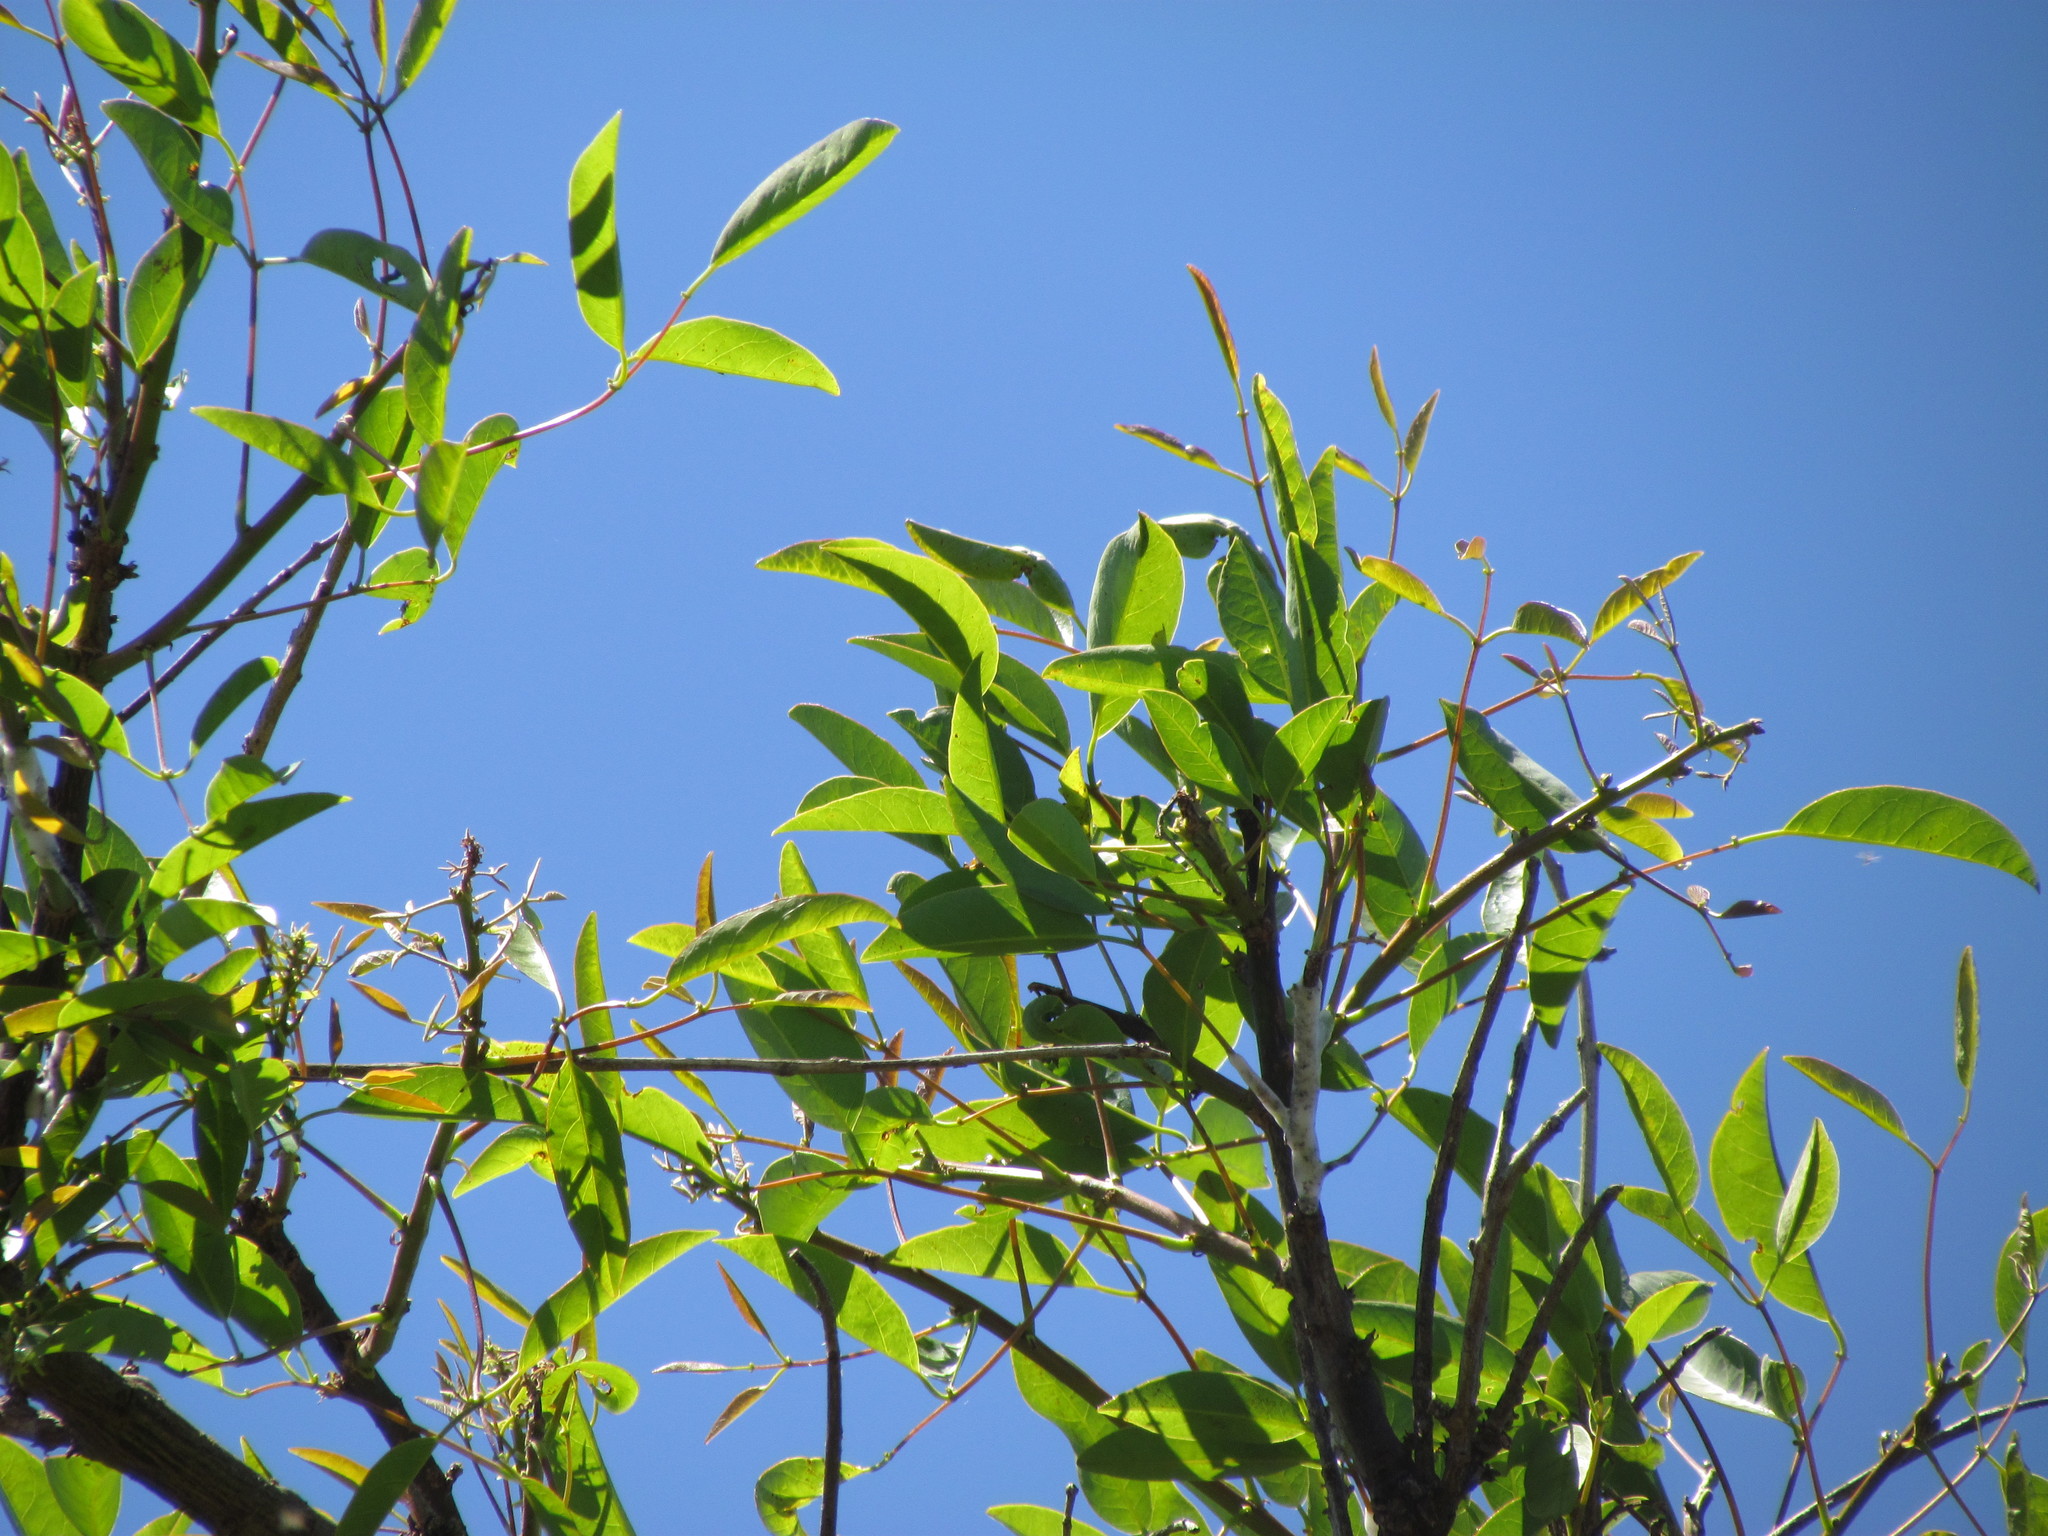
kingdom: Plantae
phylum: Tracheophyta
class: Magnoliopsida
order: Fabales
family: Fabaceae
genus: Erythrina
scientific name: Erythrina crista-galli
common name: Cockspur coral tree
